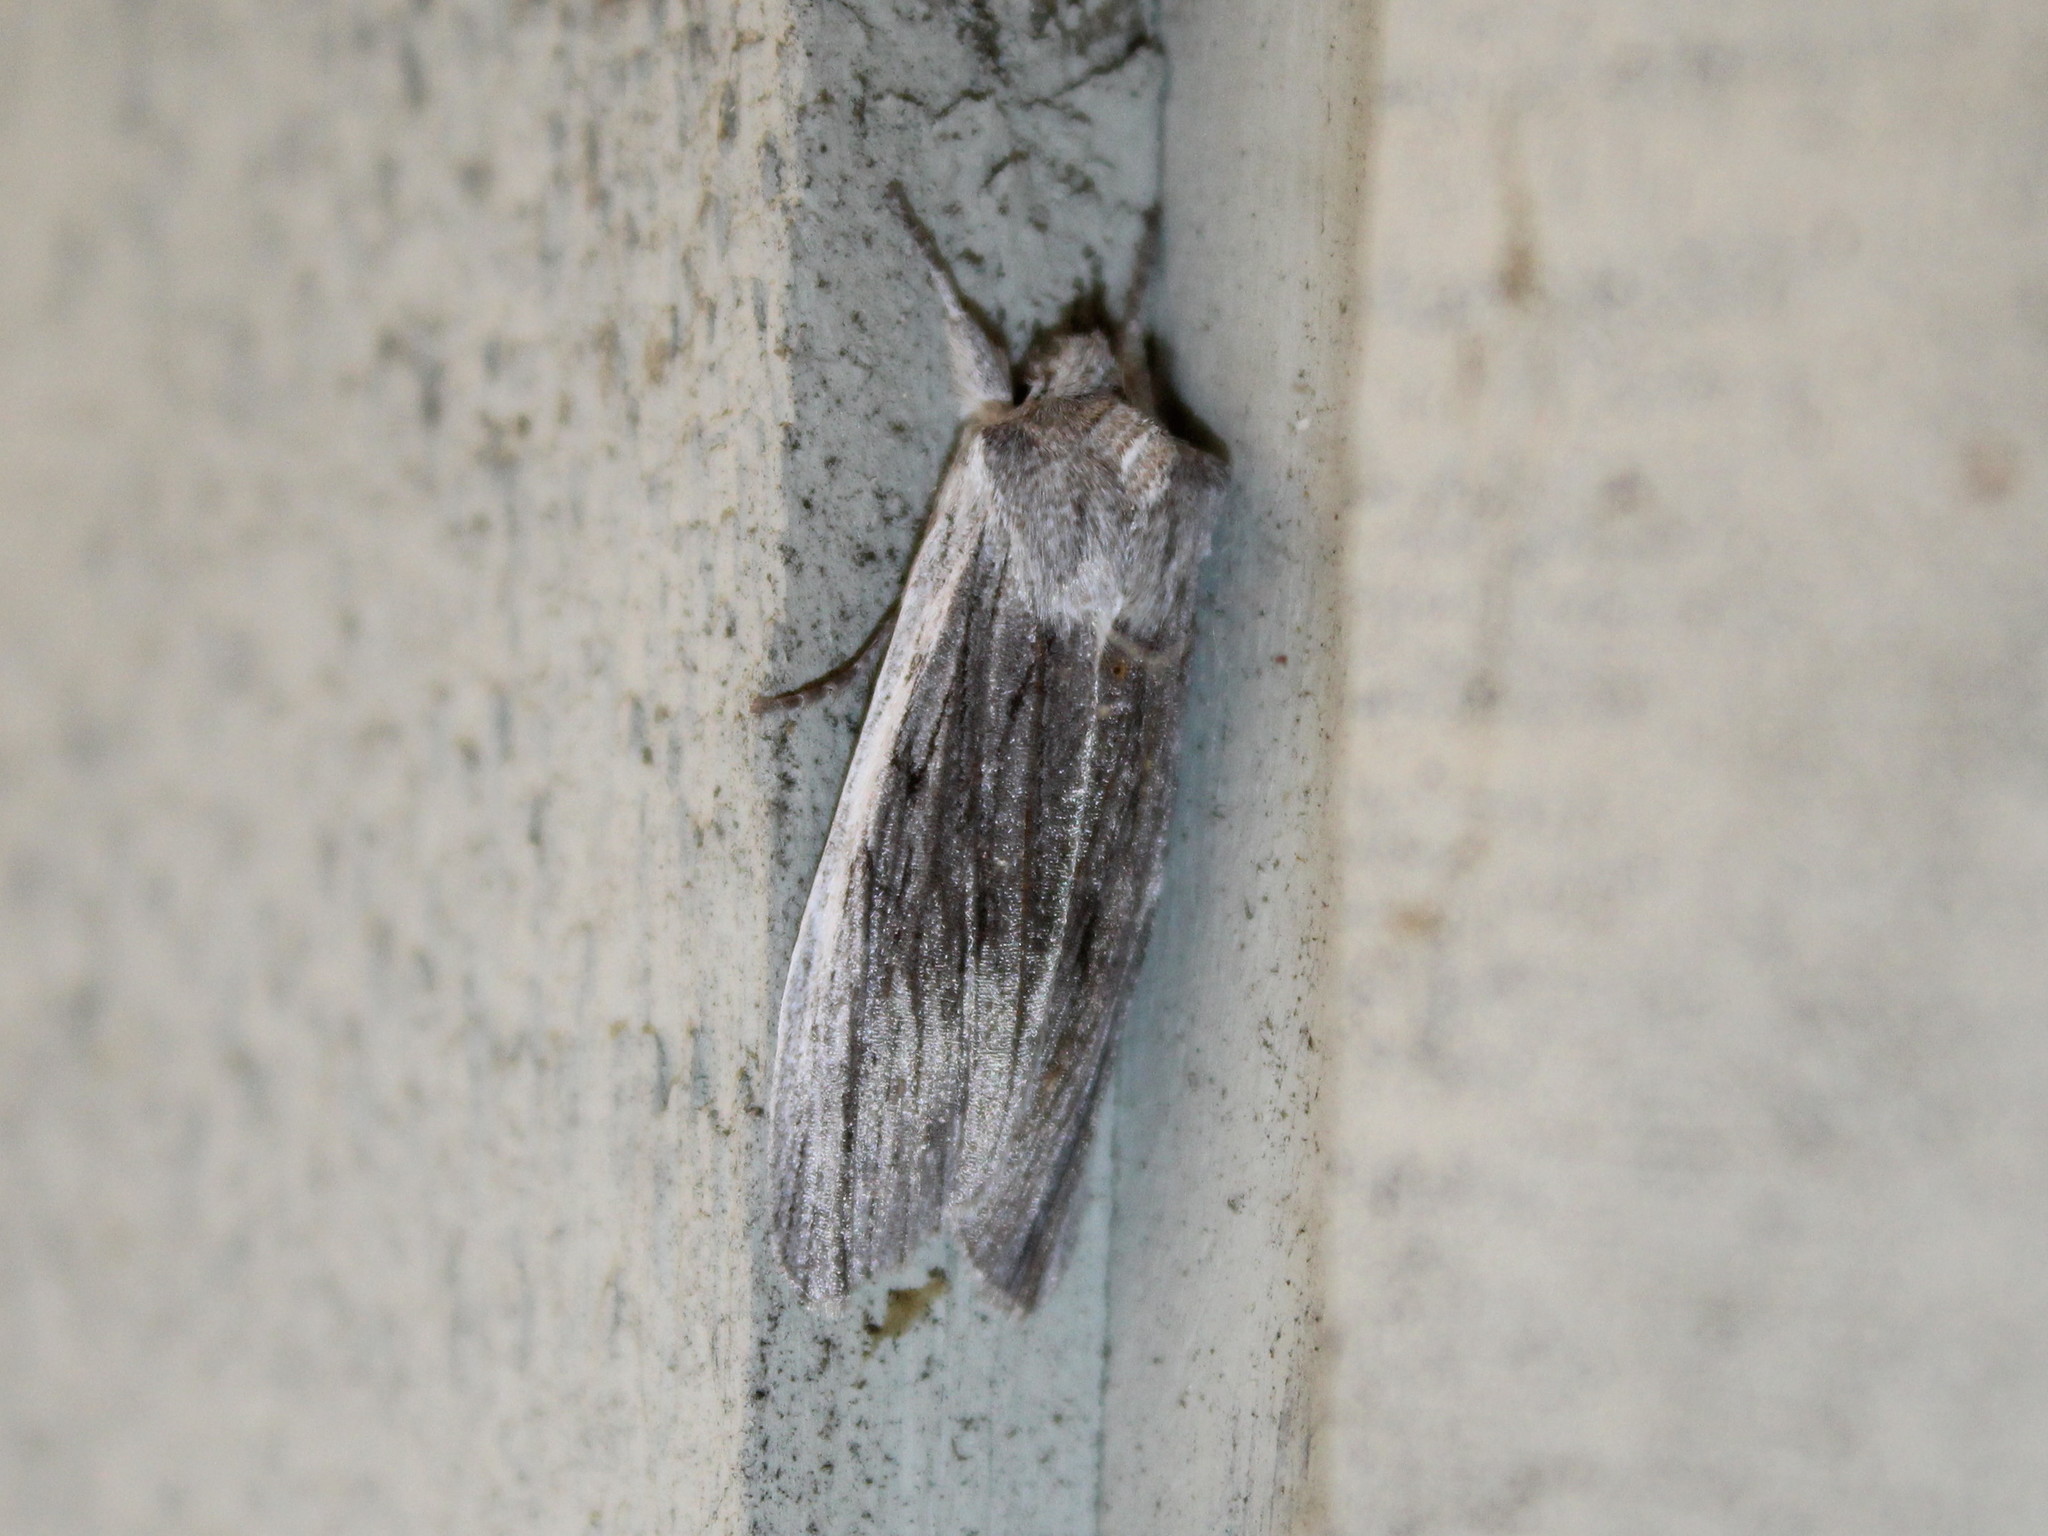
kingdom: Animalia
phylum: Arthropoda
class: Insecta
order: Lepidoptera
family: Noctuidae
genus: Lithophane
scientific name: Lithophane fagina
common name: Hoary pinion moth
